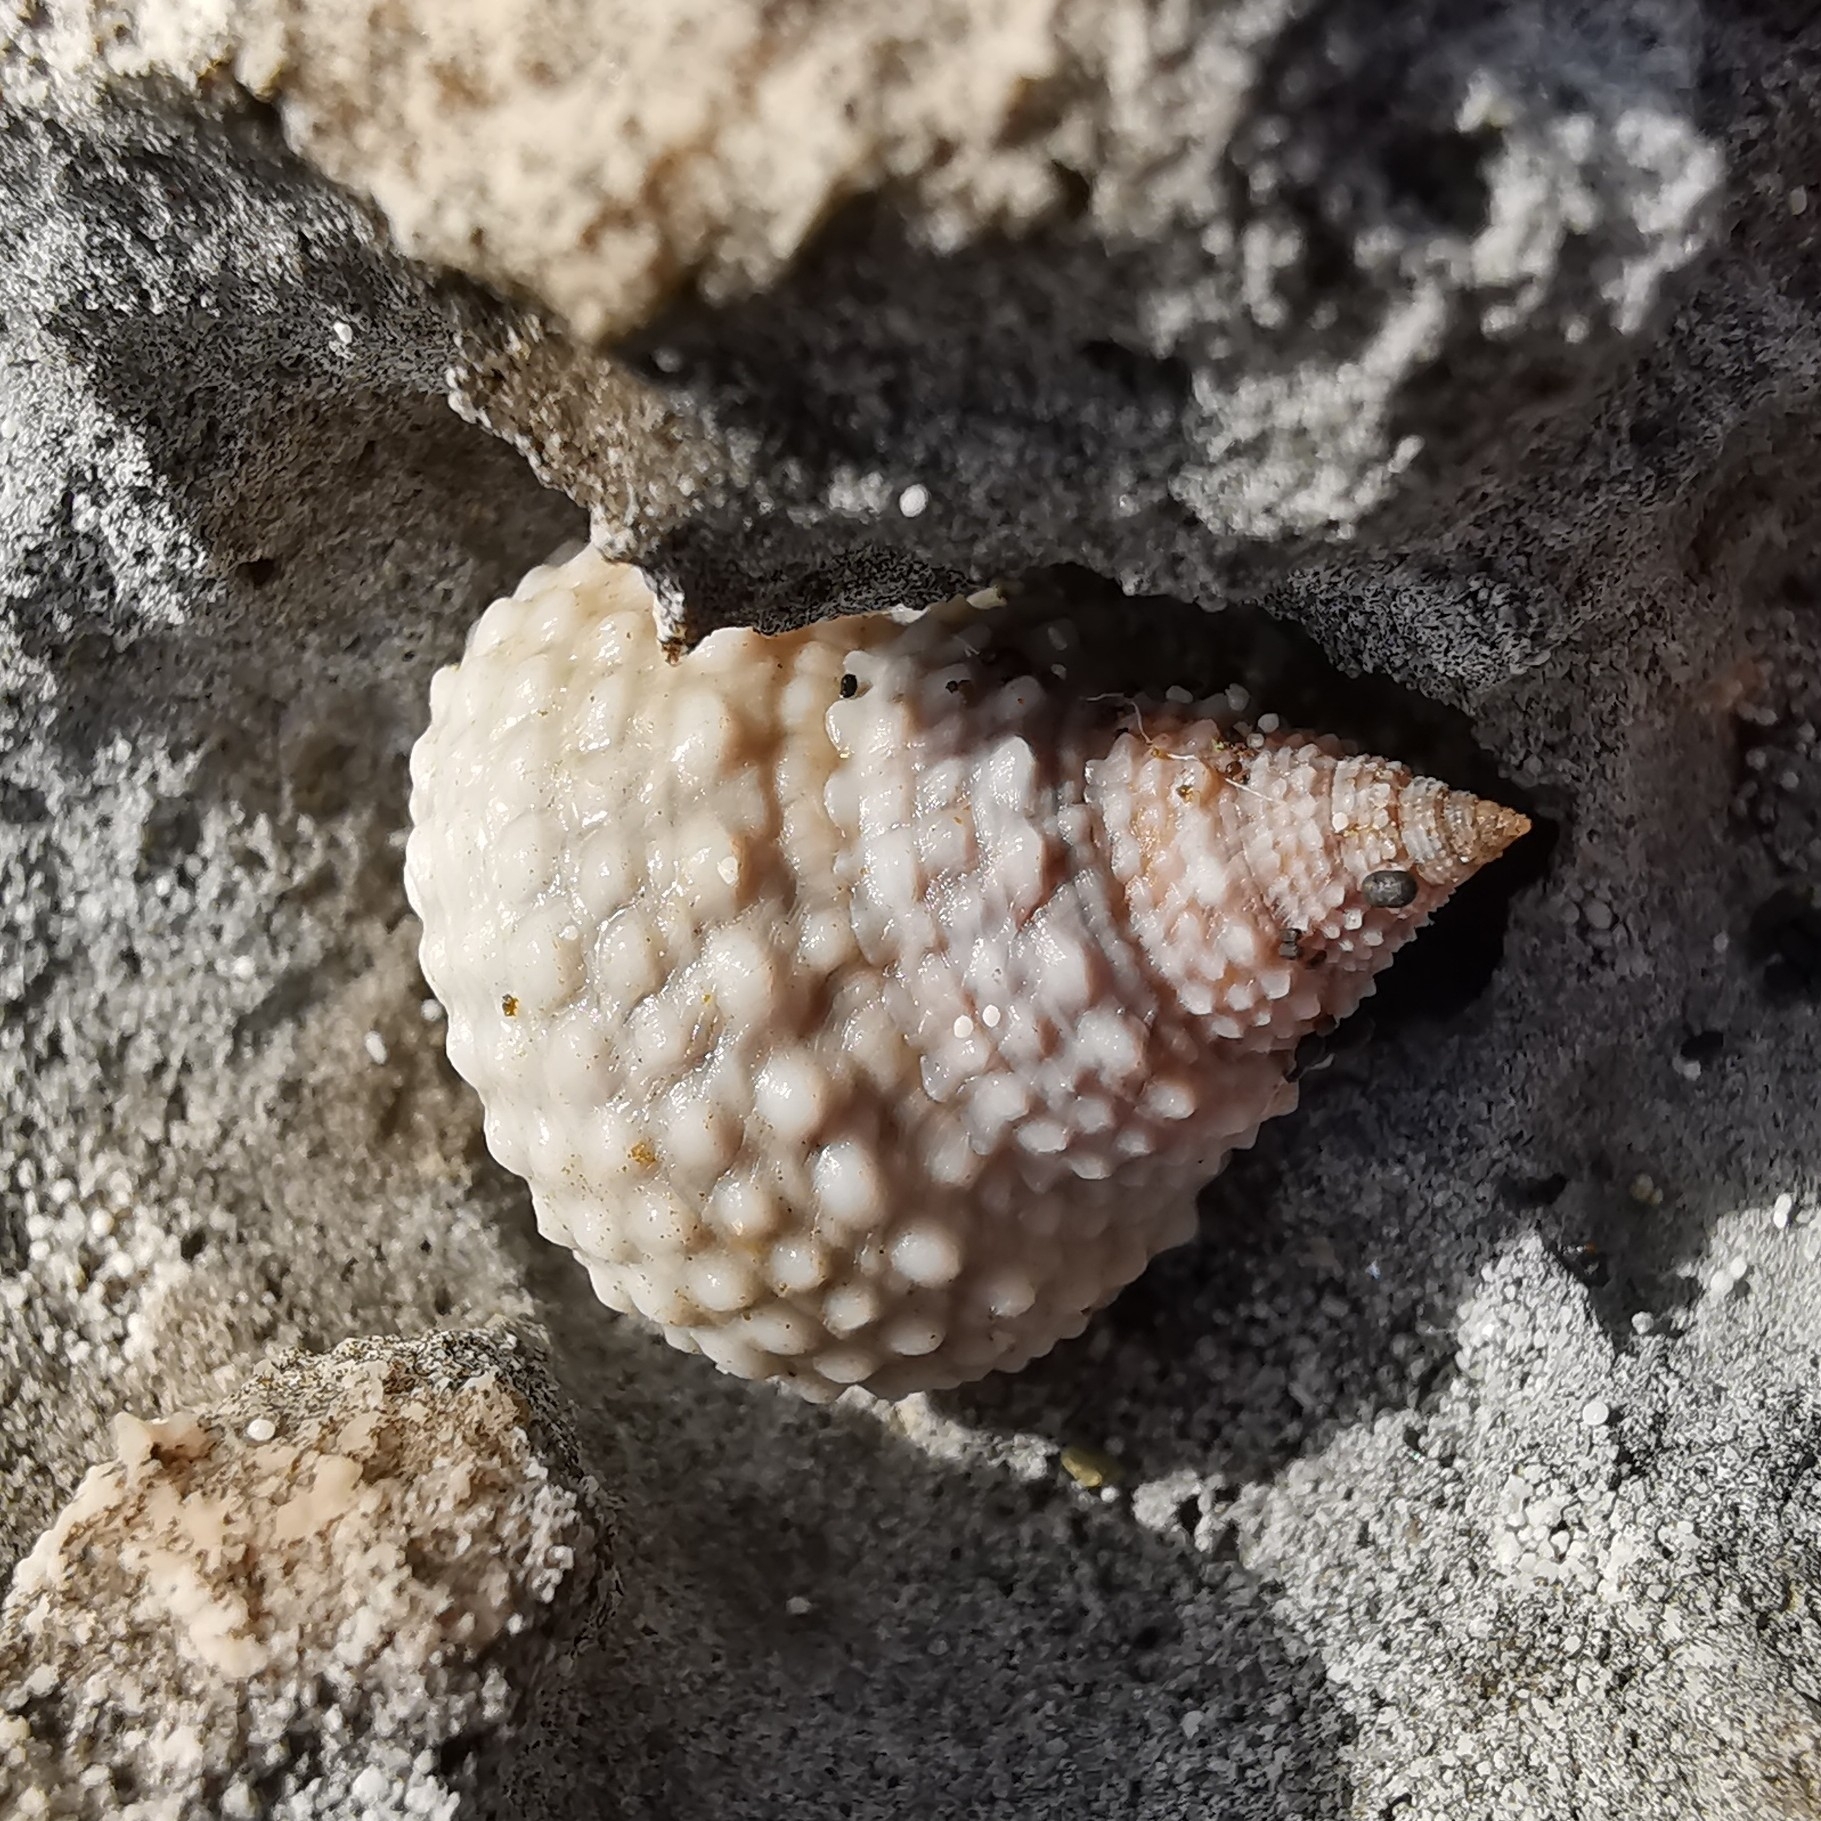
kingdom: Animalia
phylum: Mollusca
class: Gastropoda
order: Littorinimorpha
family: Littorinidae
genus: Cenchritis
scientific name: Cenchritis muricatus
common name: Beaded periwinkle
